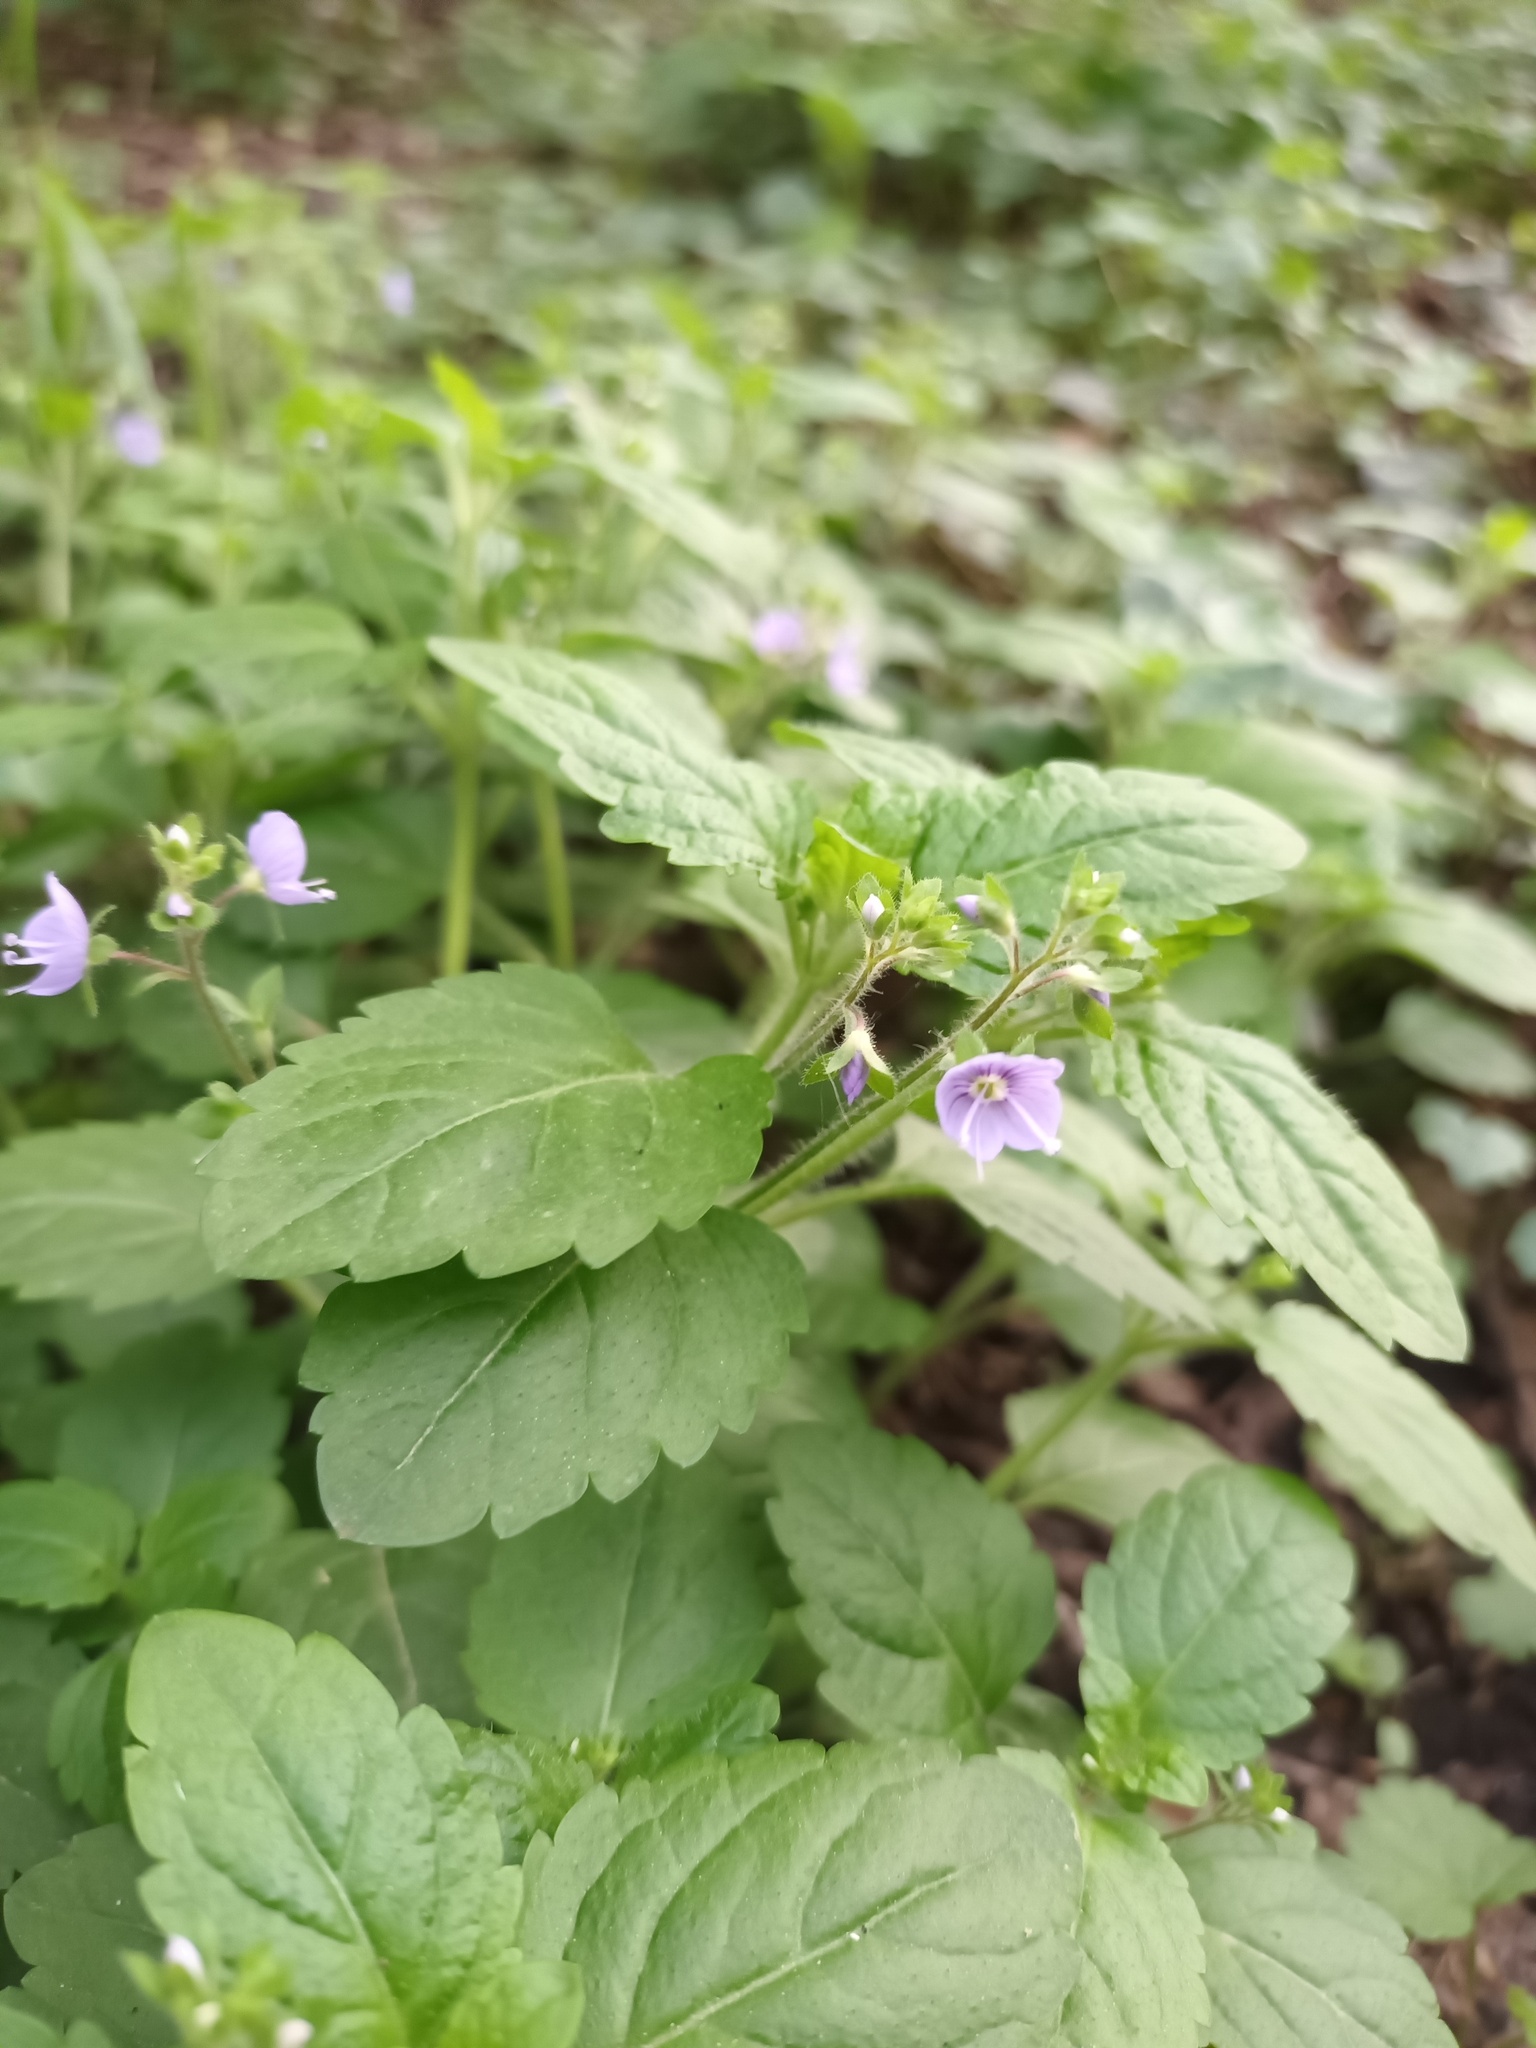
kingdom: Plantae
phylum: Tracheophyta
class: Magnoliopsida
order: Lamiales
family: Plantaginaceae
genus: Veronica
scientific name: Veronica montana
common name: Wood speedwell
